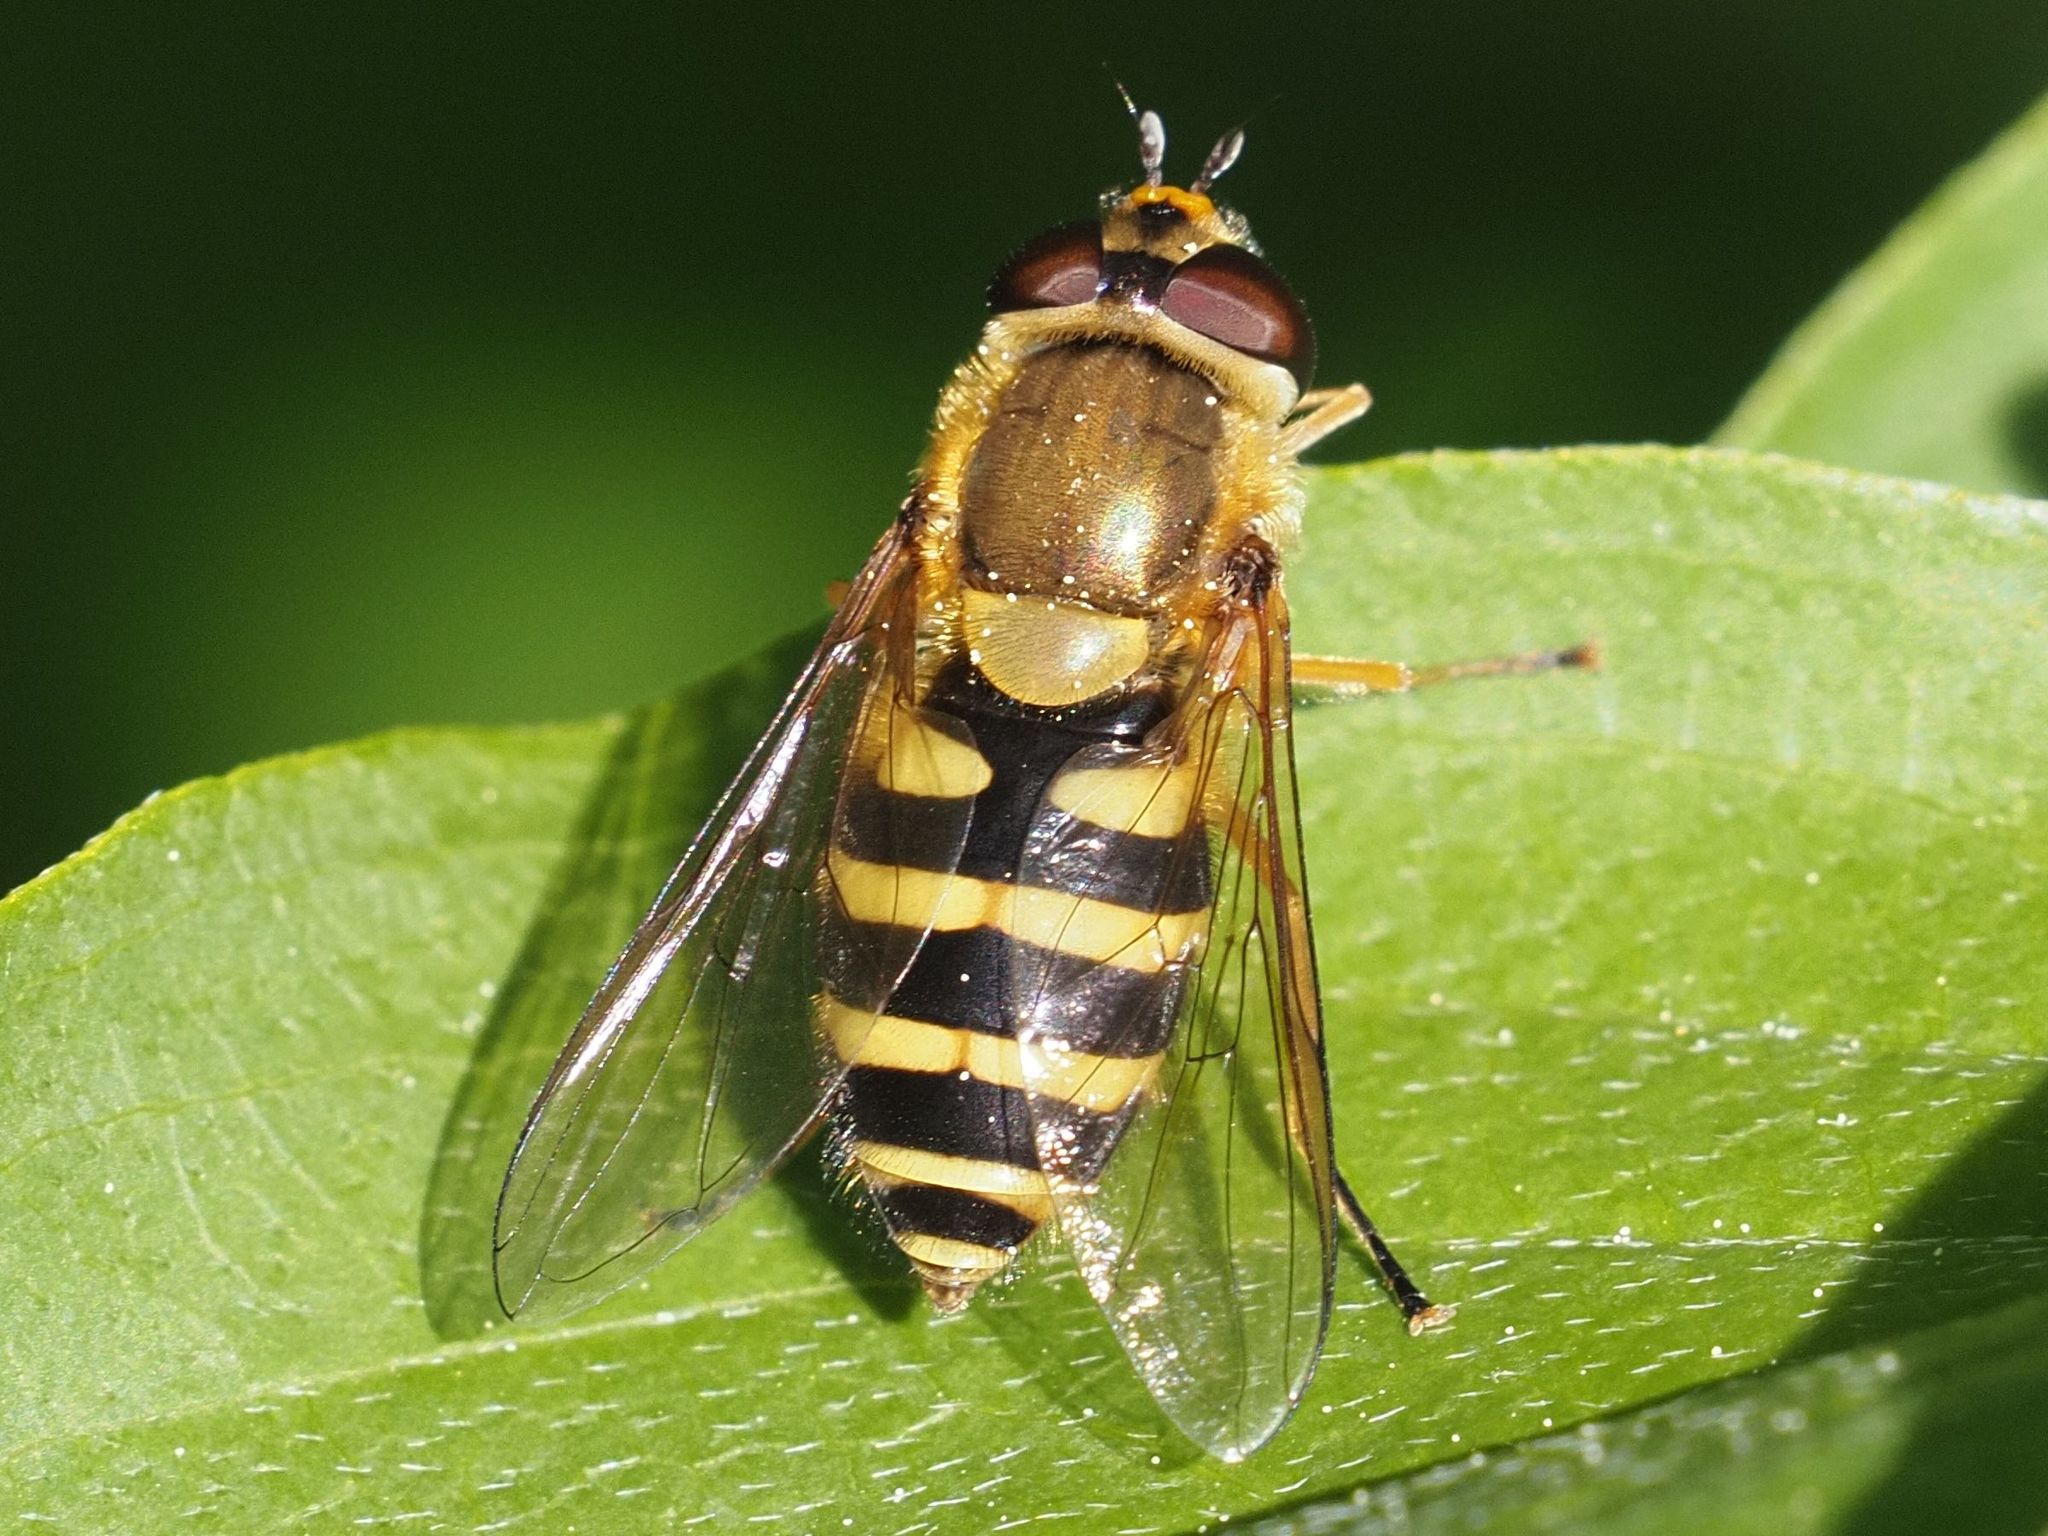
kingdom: Animalia
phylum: Arthropoda
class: Insecta
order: Diptera
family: Syrphidae
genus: Syrphus
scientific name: Syrphus ribesii
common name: Common flower fly
